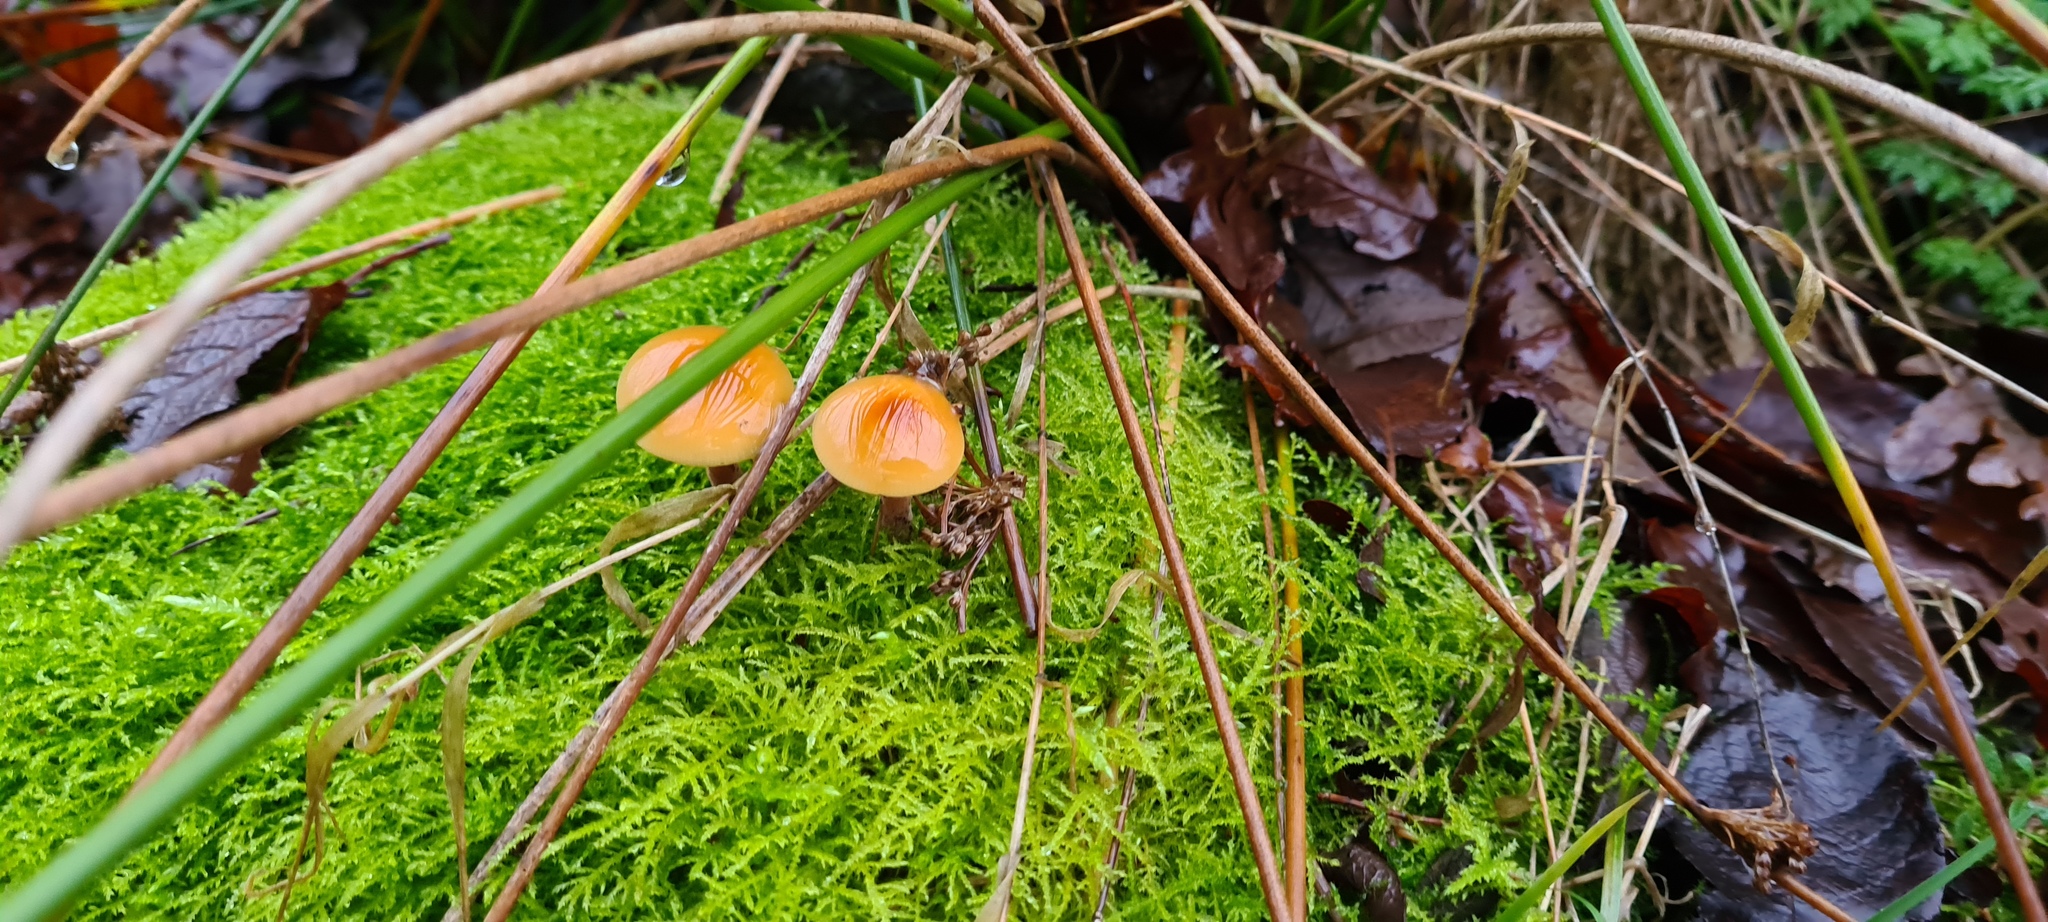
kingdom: Fungi
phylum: Basidiomycota
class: Agaricomycetes
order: Agaricales
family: Physalacriaceae
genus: Flammulina
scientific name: Flammulina
